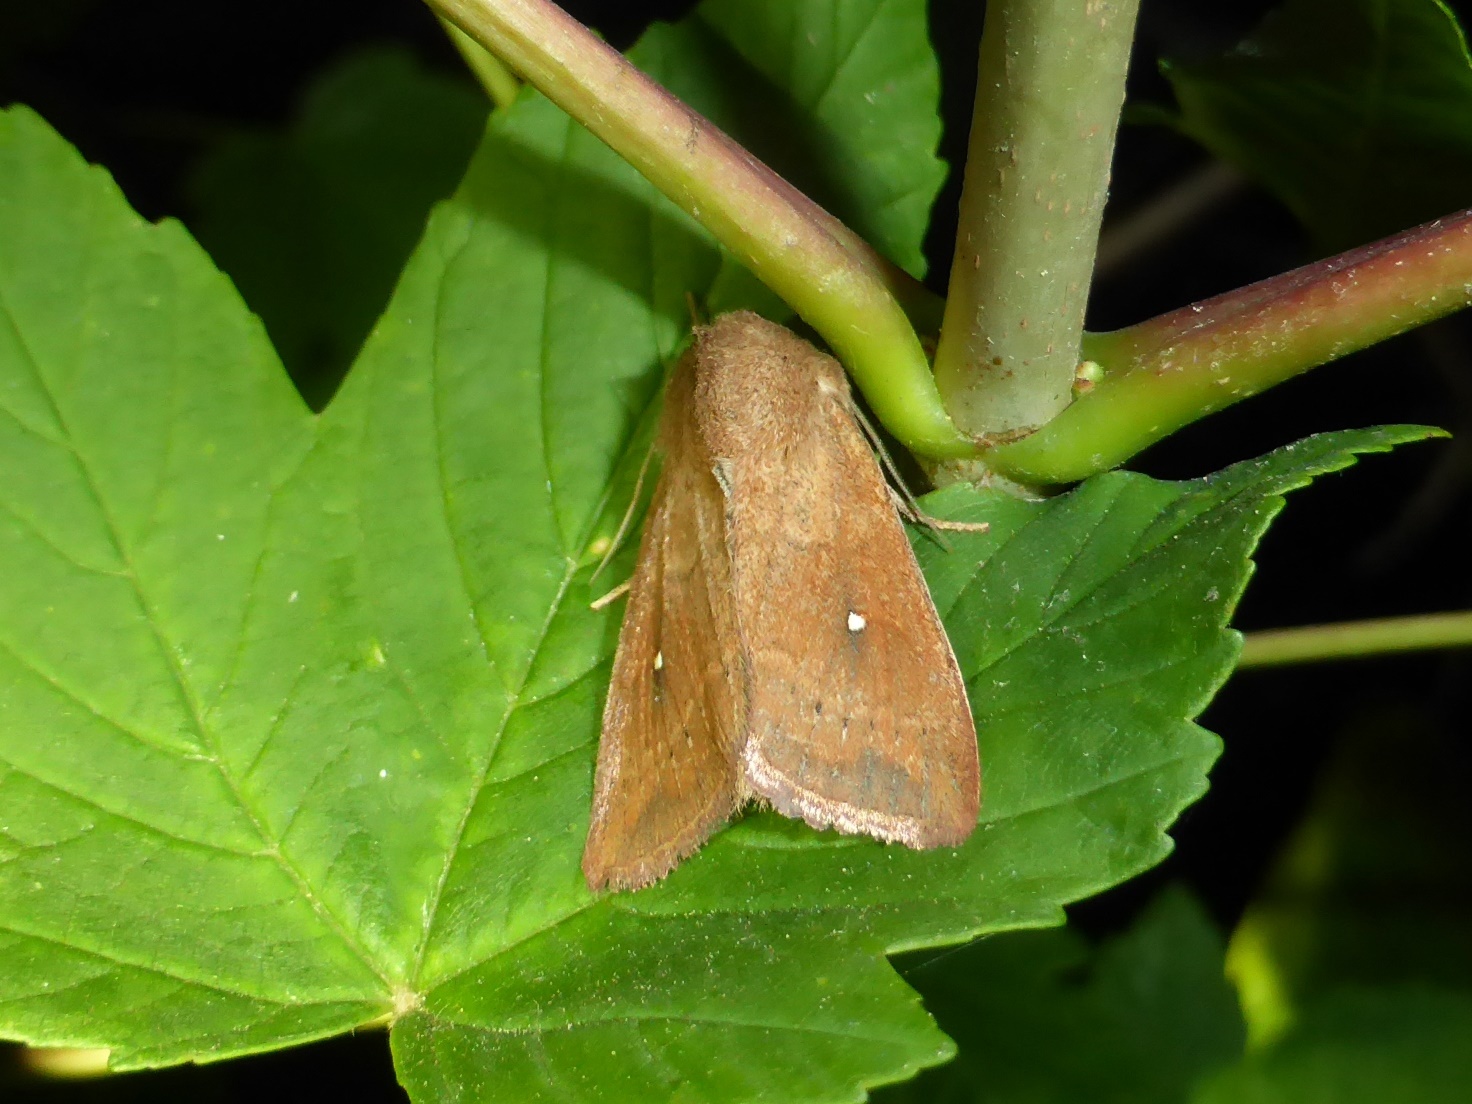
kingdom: Animalia
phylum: Arthropoda
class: Insecta
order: Lepidoptera
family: Noctuidae
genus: Mythimna
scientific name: Mythimna albipuncta
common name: White-point
